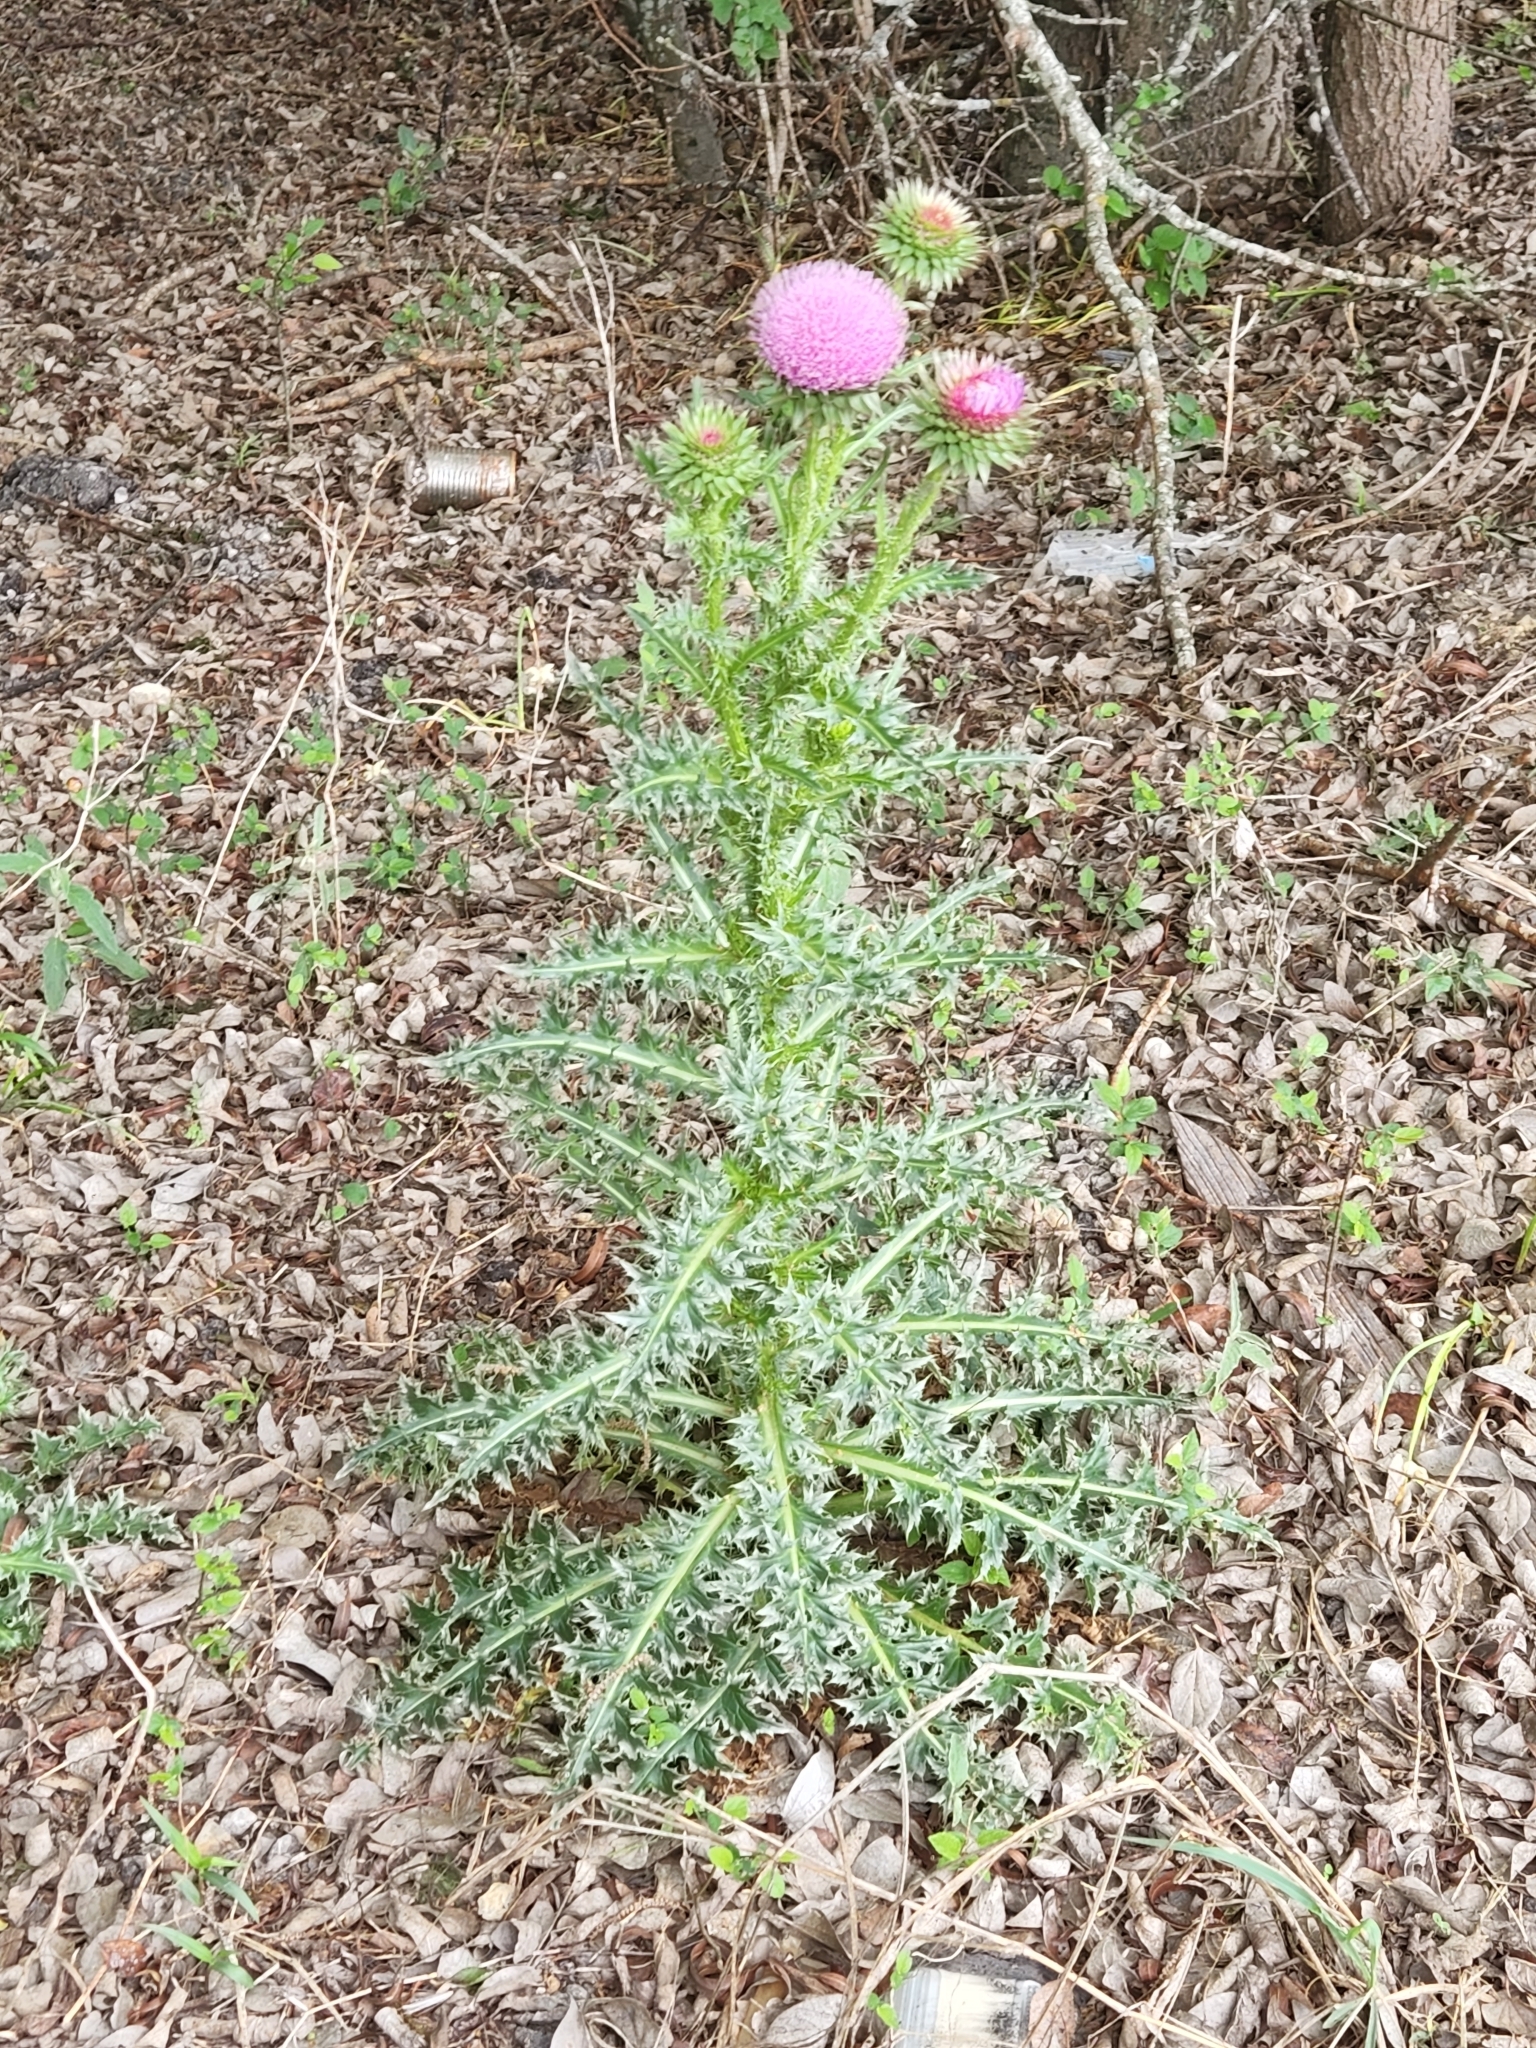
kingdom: Plantae
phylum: Tracheophyta
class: Magnoliopsida
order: Asterales
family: Asteraceae
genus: Carduus
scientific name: Carduus nutans
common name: Musk thistle
